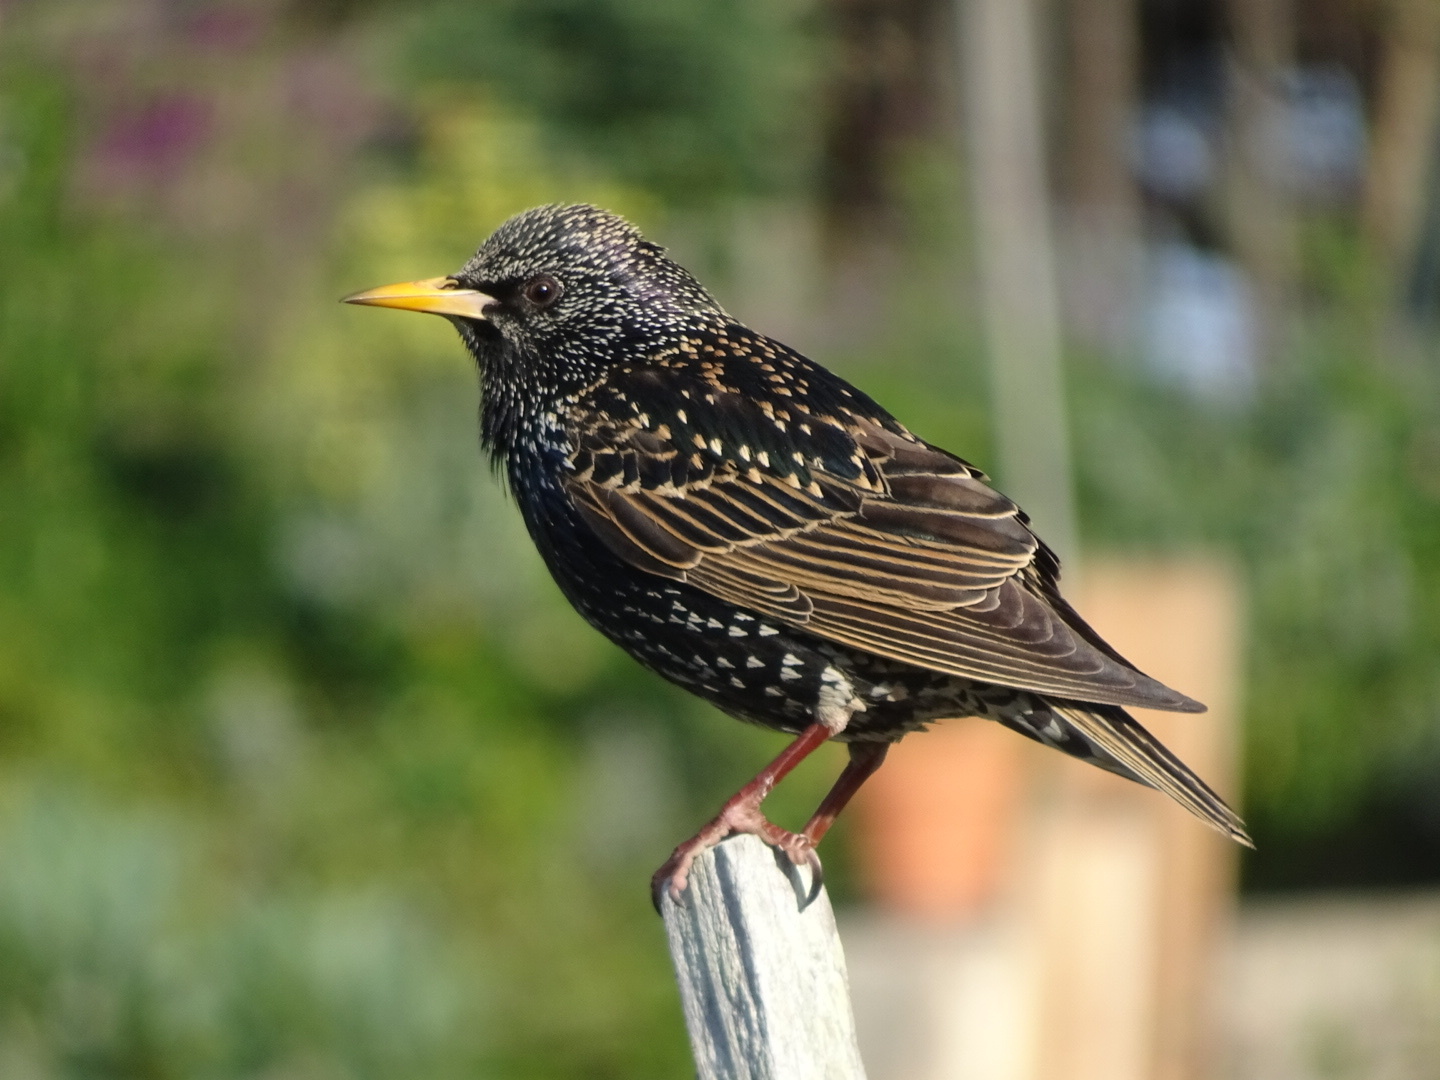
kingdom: Animalia
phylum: Chordata
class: Aves
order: Passeriformes
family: Sturnidae
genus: Sturnus
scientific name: Sturnus vulgaris
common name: Common starling
